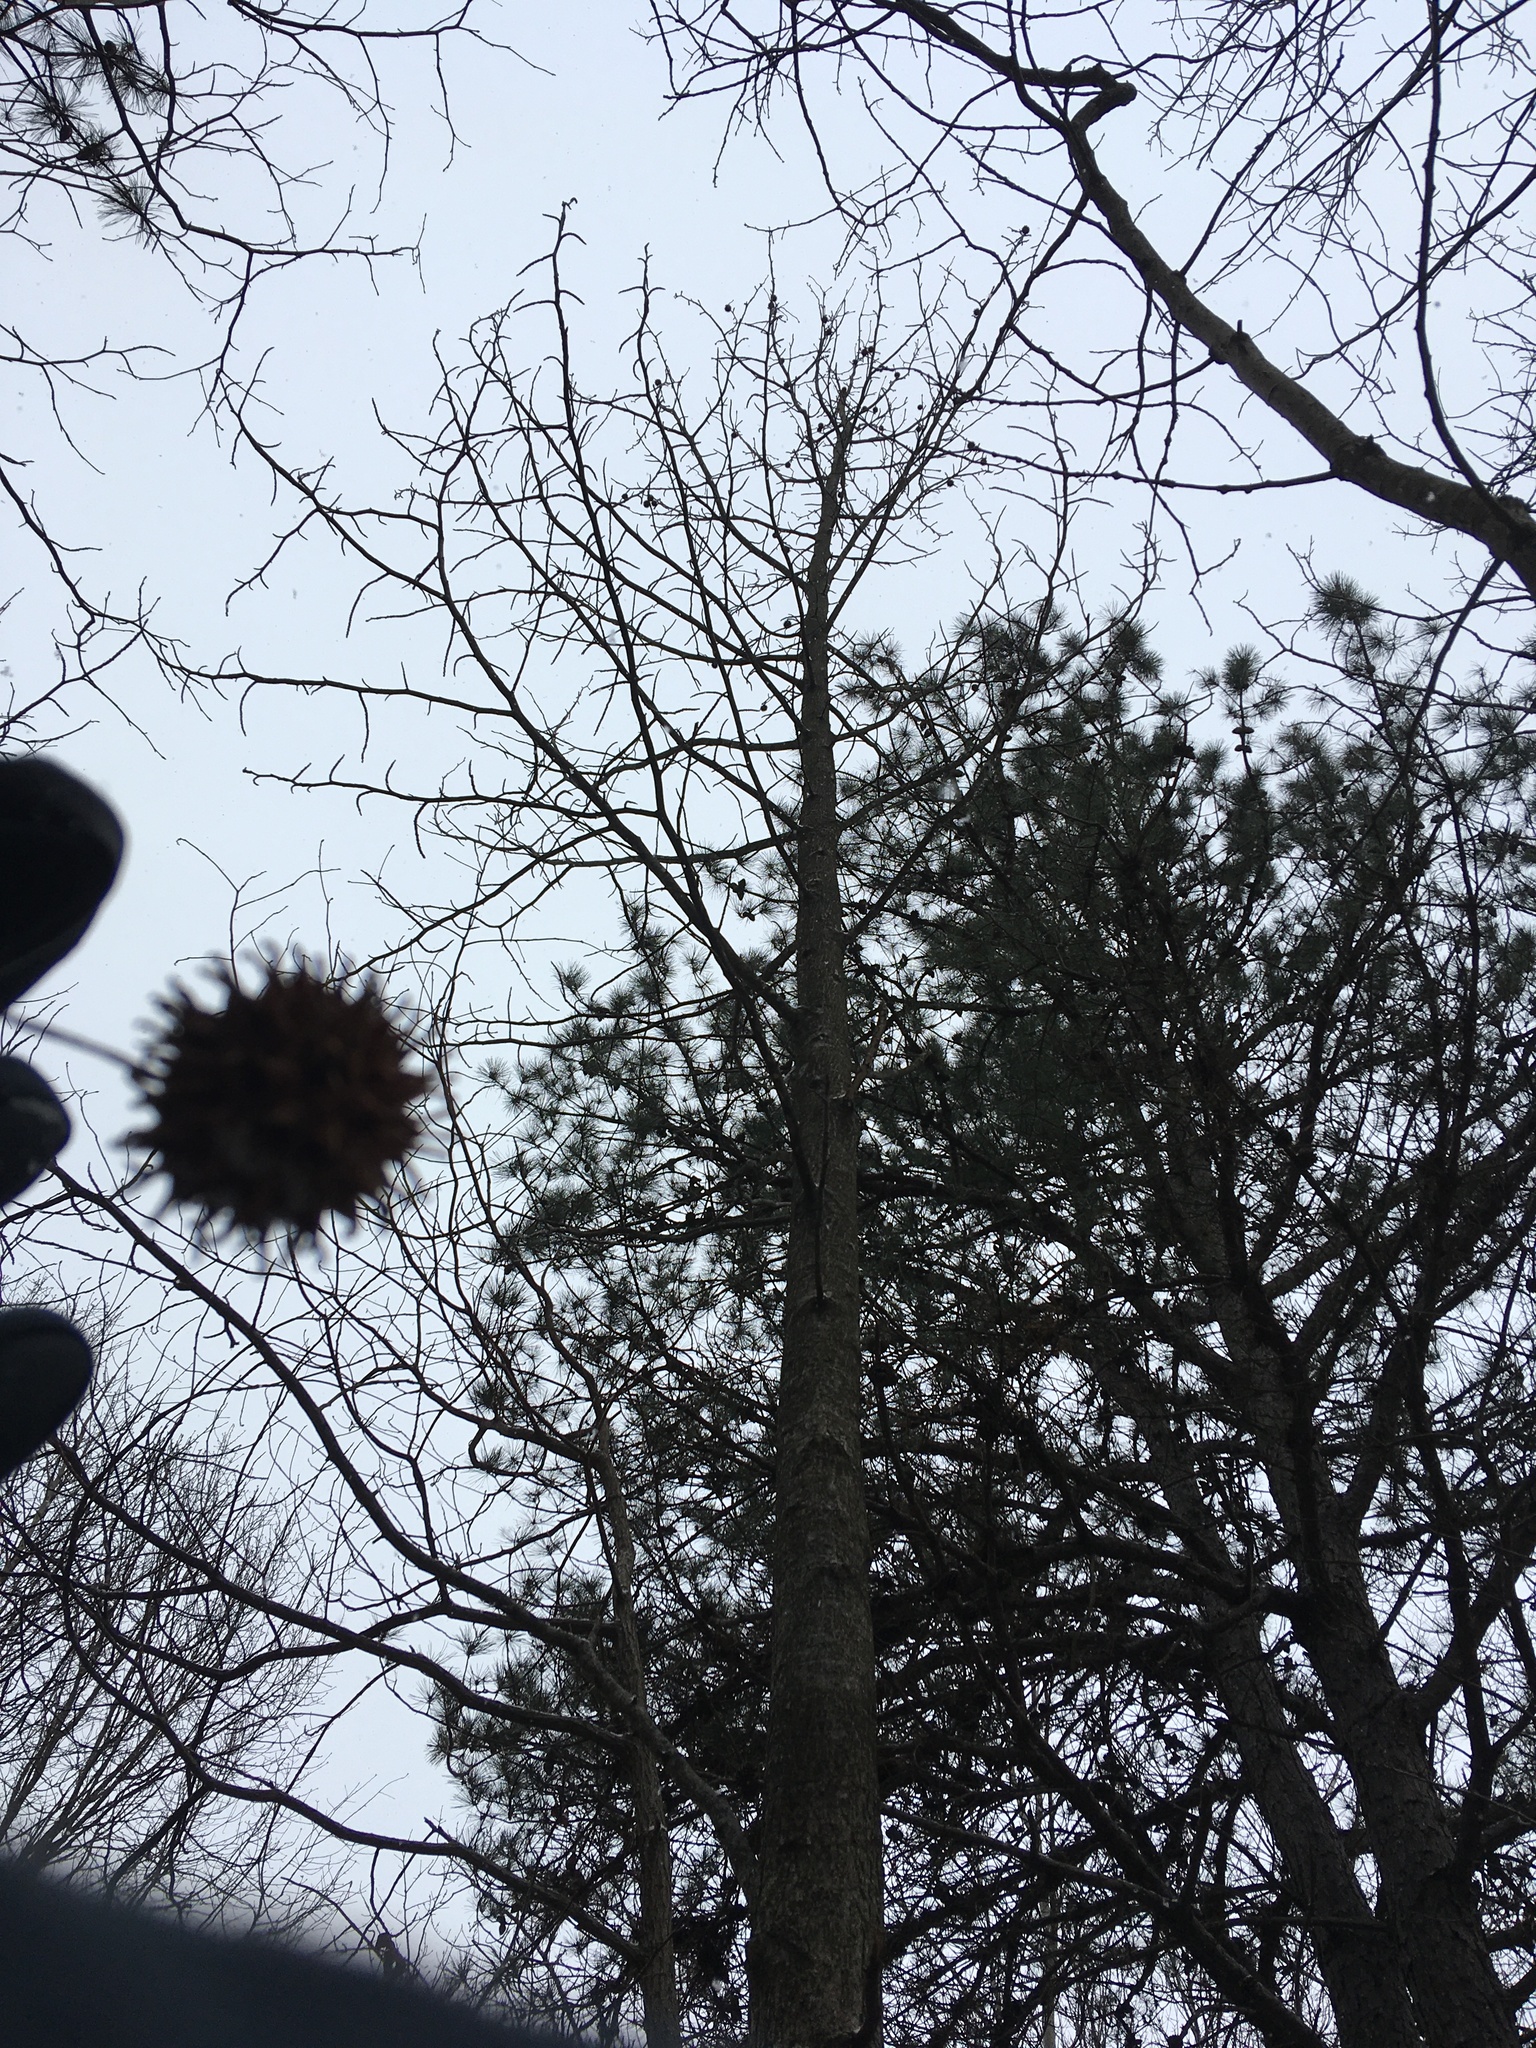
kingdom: Plantae
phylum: Tracheophyta
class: Magnoliopsida
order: Saxifragales
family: Altingiaceae
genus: Liquidambar
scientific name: Liquidambar styraciflua
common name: Sweet gum
